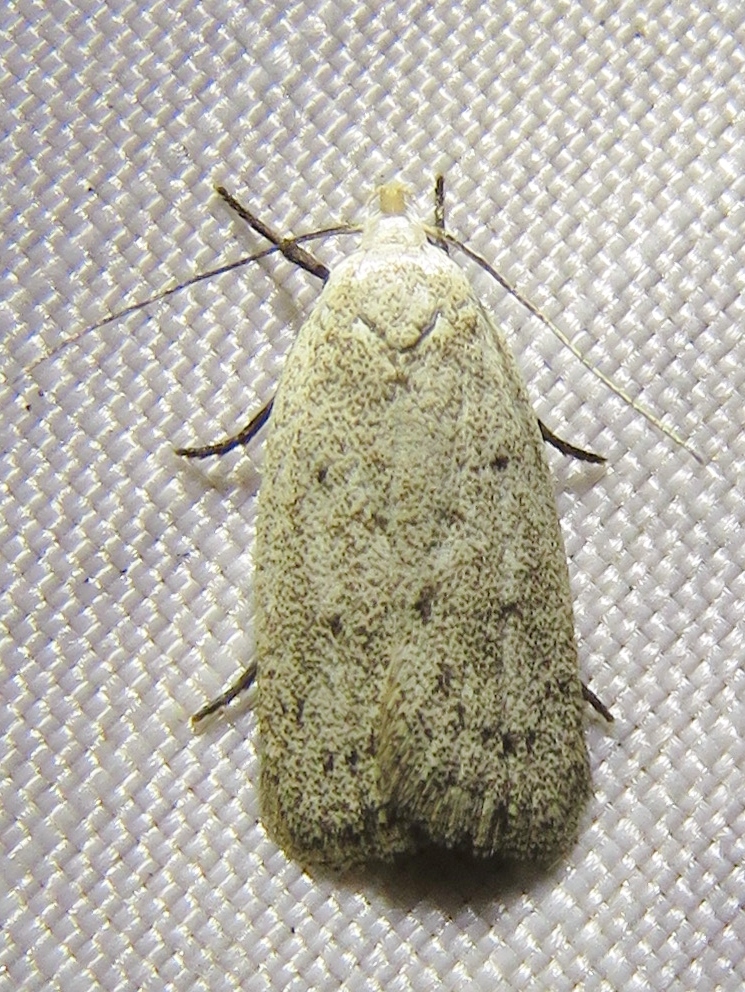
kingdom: Animalia
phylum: Arthropoda
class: Insecta
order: Lepidoptera
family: Oecophoridae
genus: Inga
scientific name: Inga cretacea
